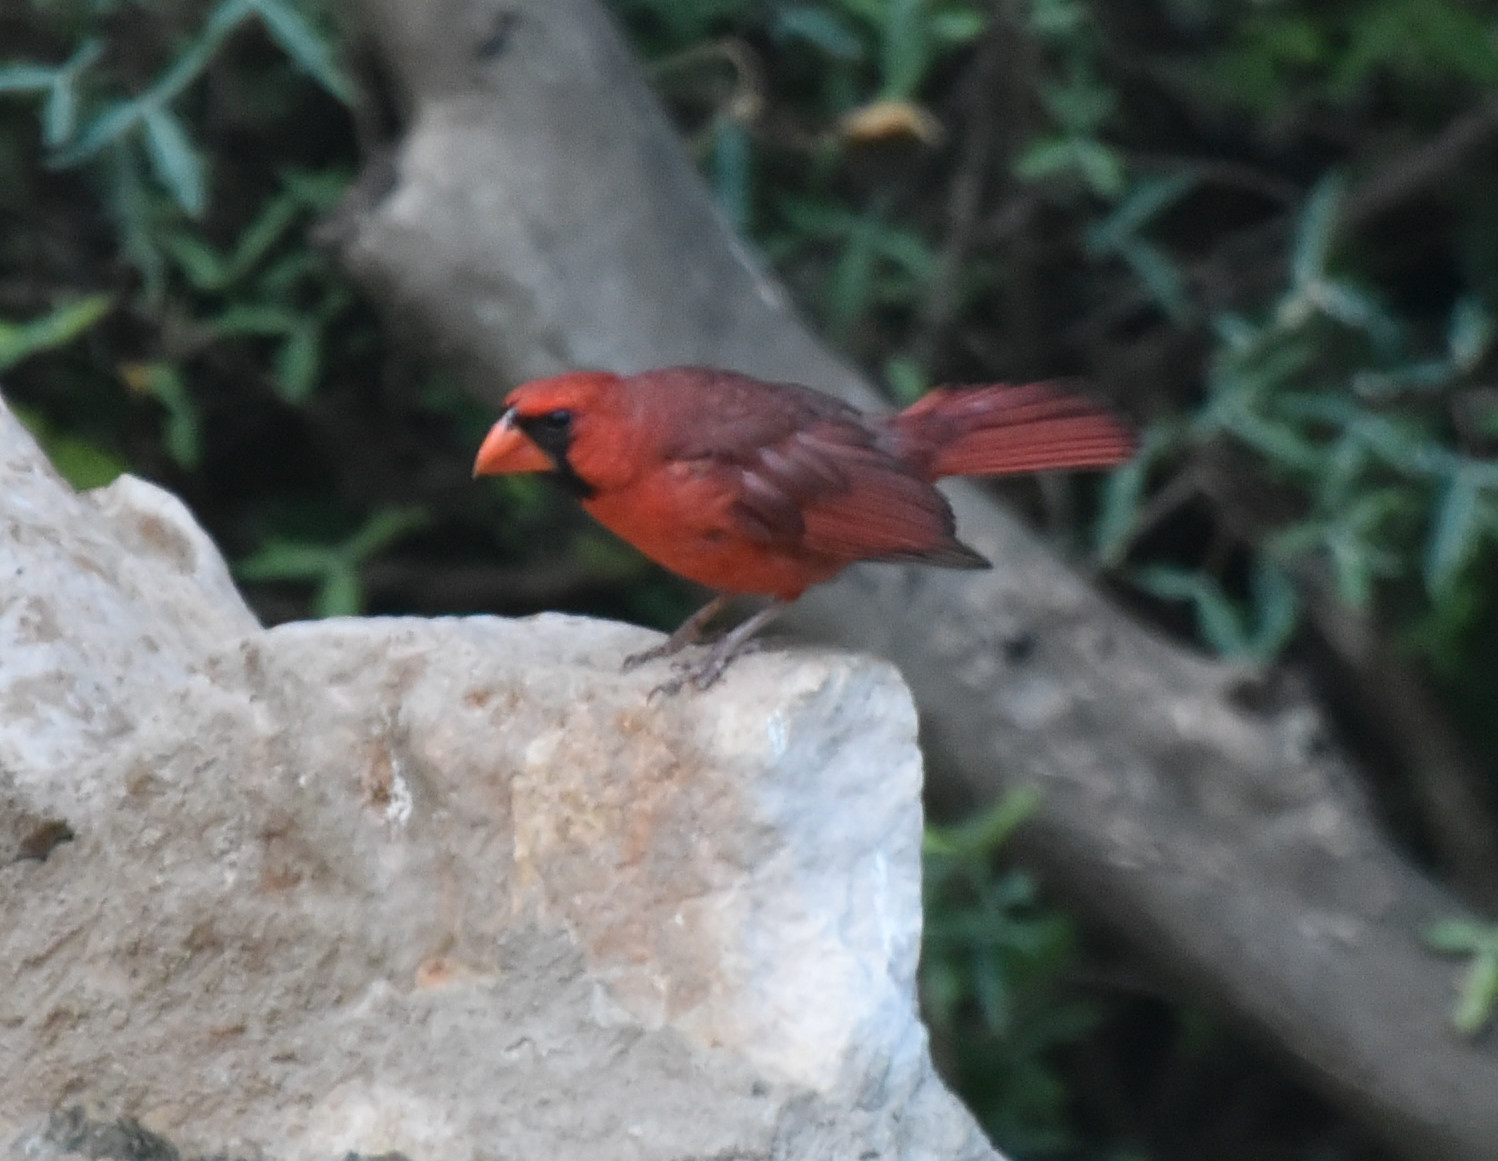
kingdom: Animalia
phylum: Chordata
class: Aves
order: Passeriformes
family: Cardinalidae
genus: Cardinalis
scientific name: Cardinalis cardinalis
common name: Northern cardinal
